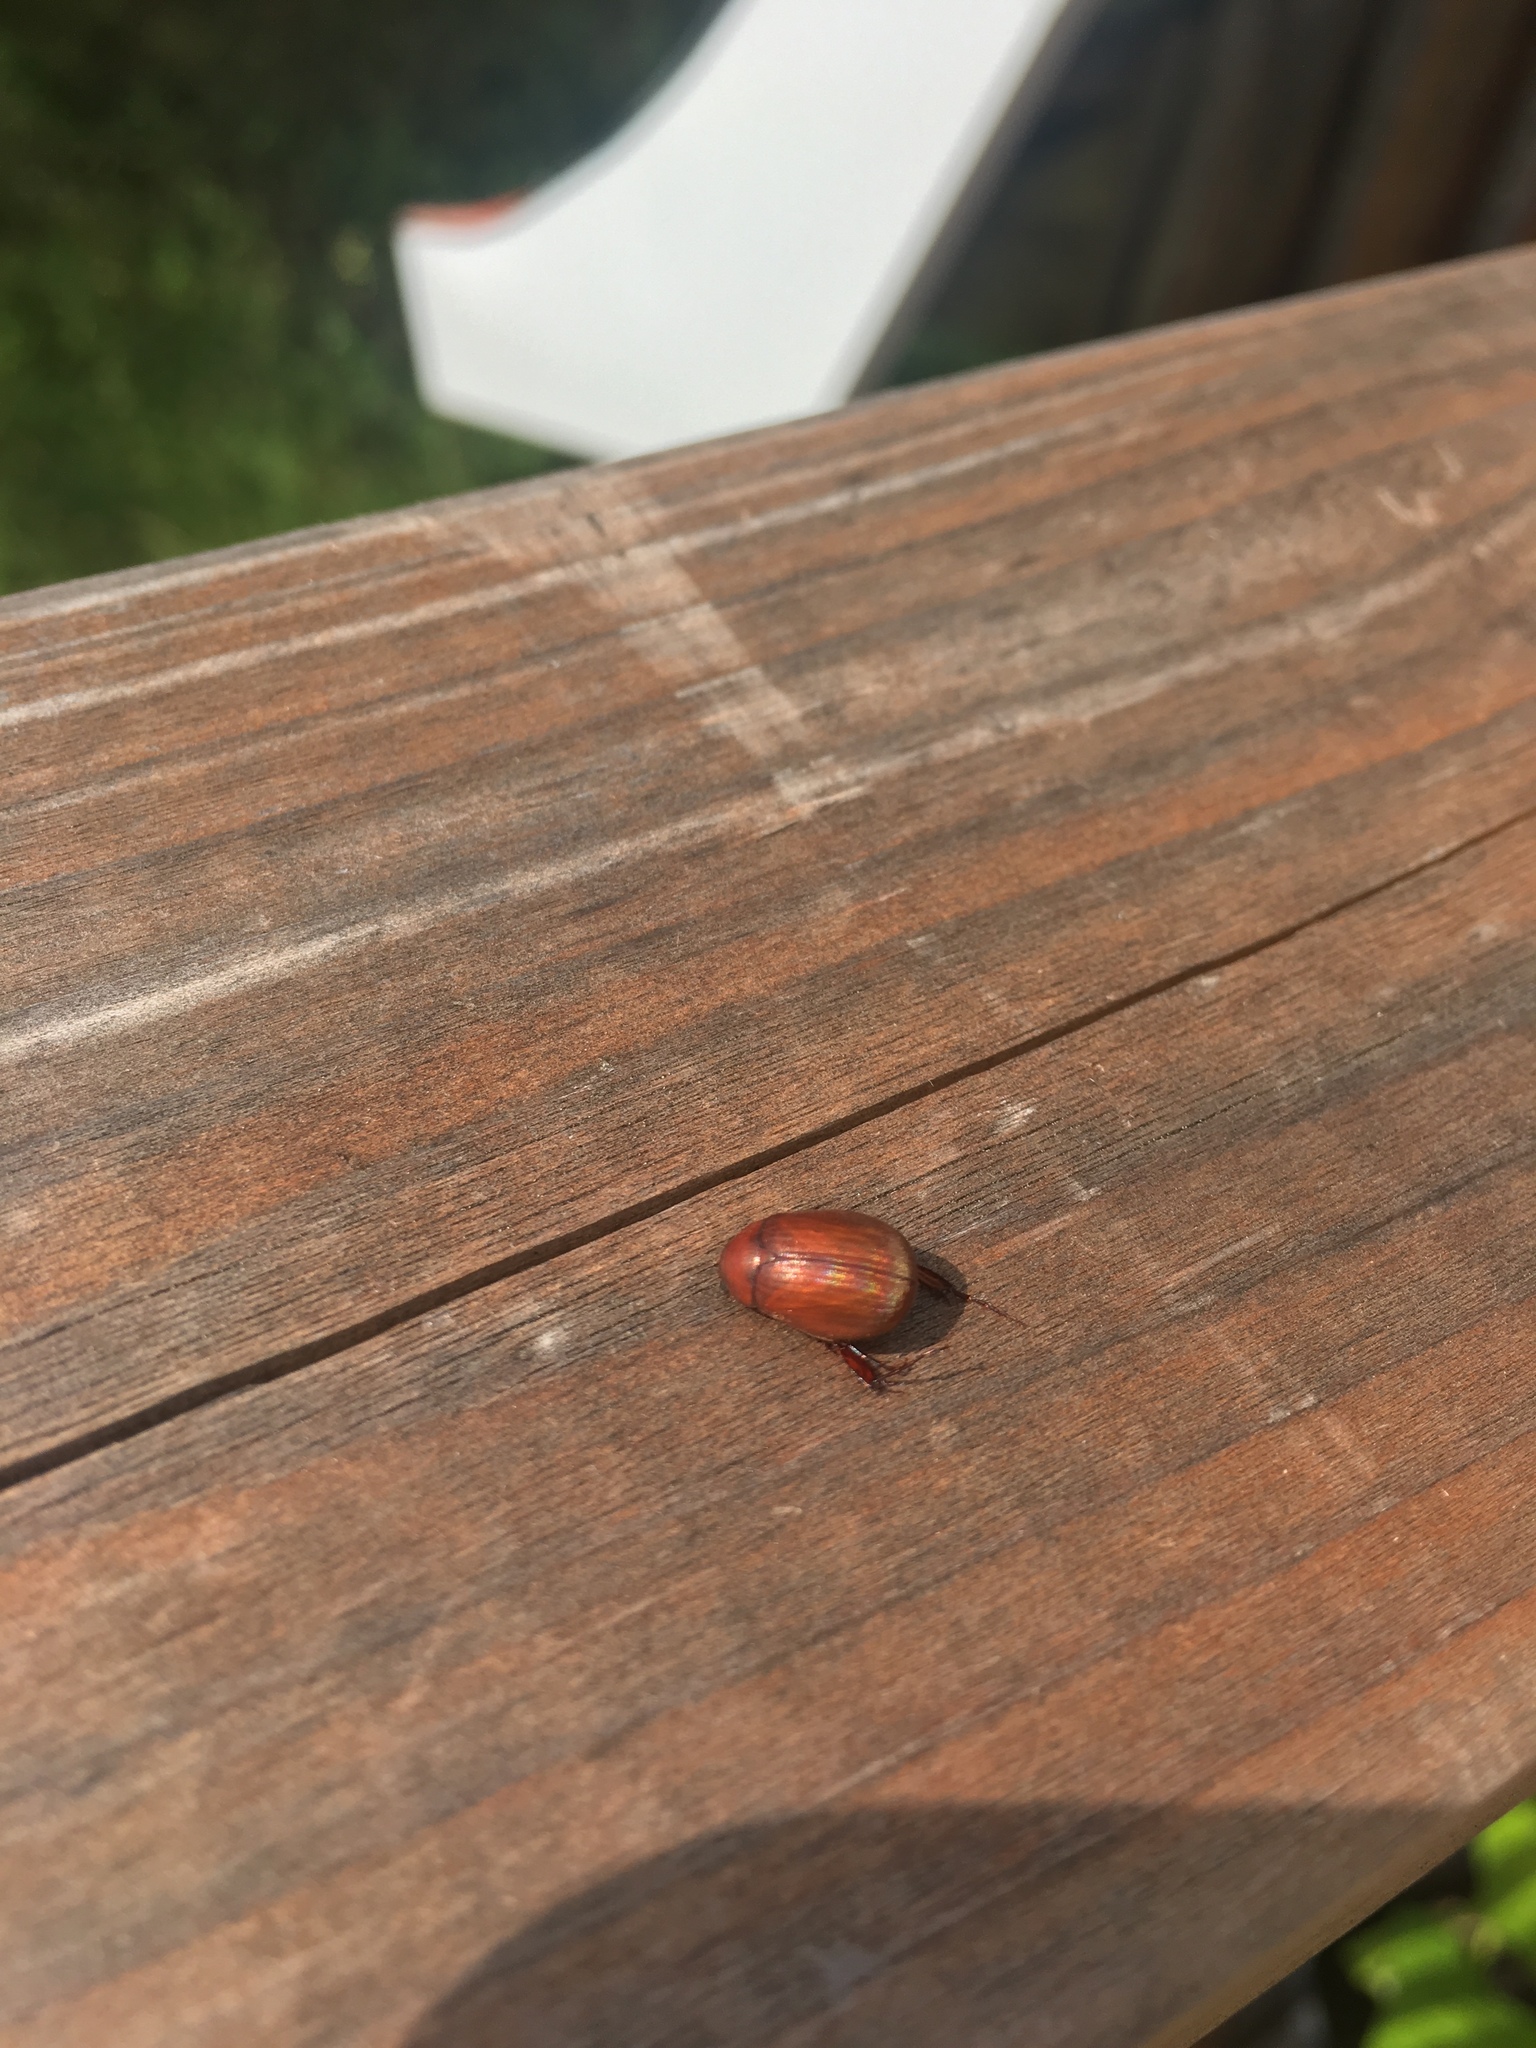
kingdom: Animalia
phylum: Arthropoda
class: Insecta
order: Coleoptera
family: Scarabaeidae
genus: Maladera
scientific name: Maladera formosae
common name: Asiatic garden beetle
